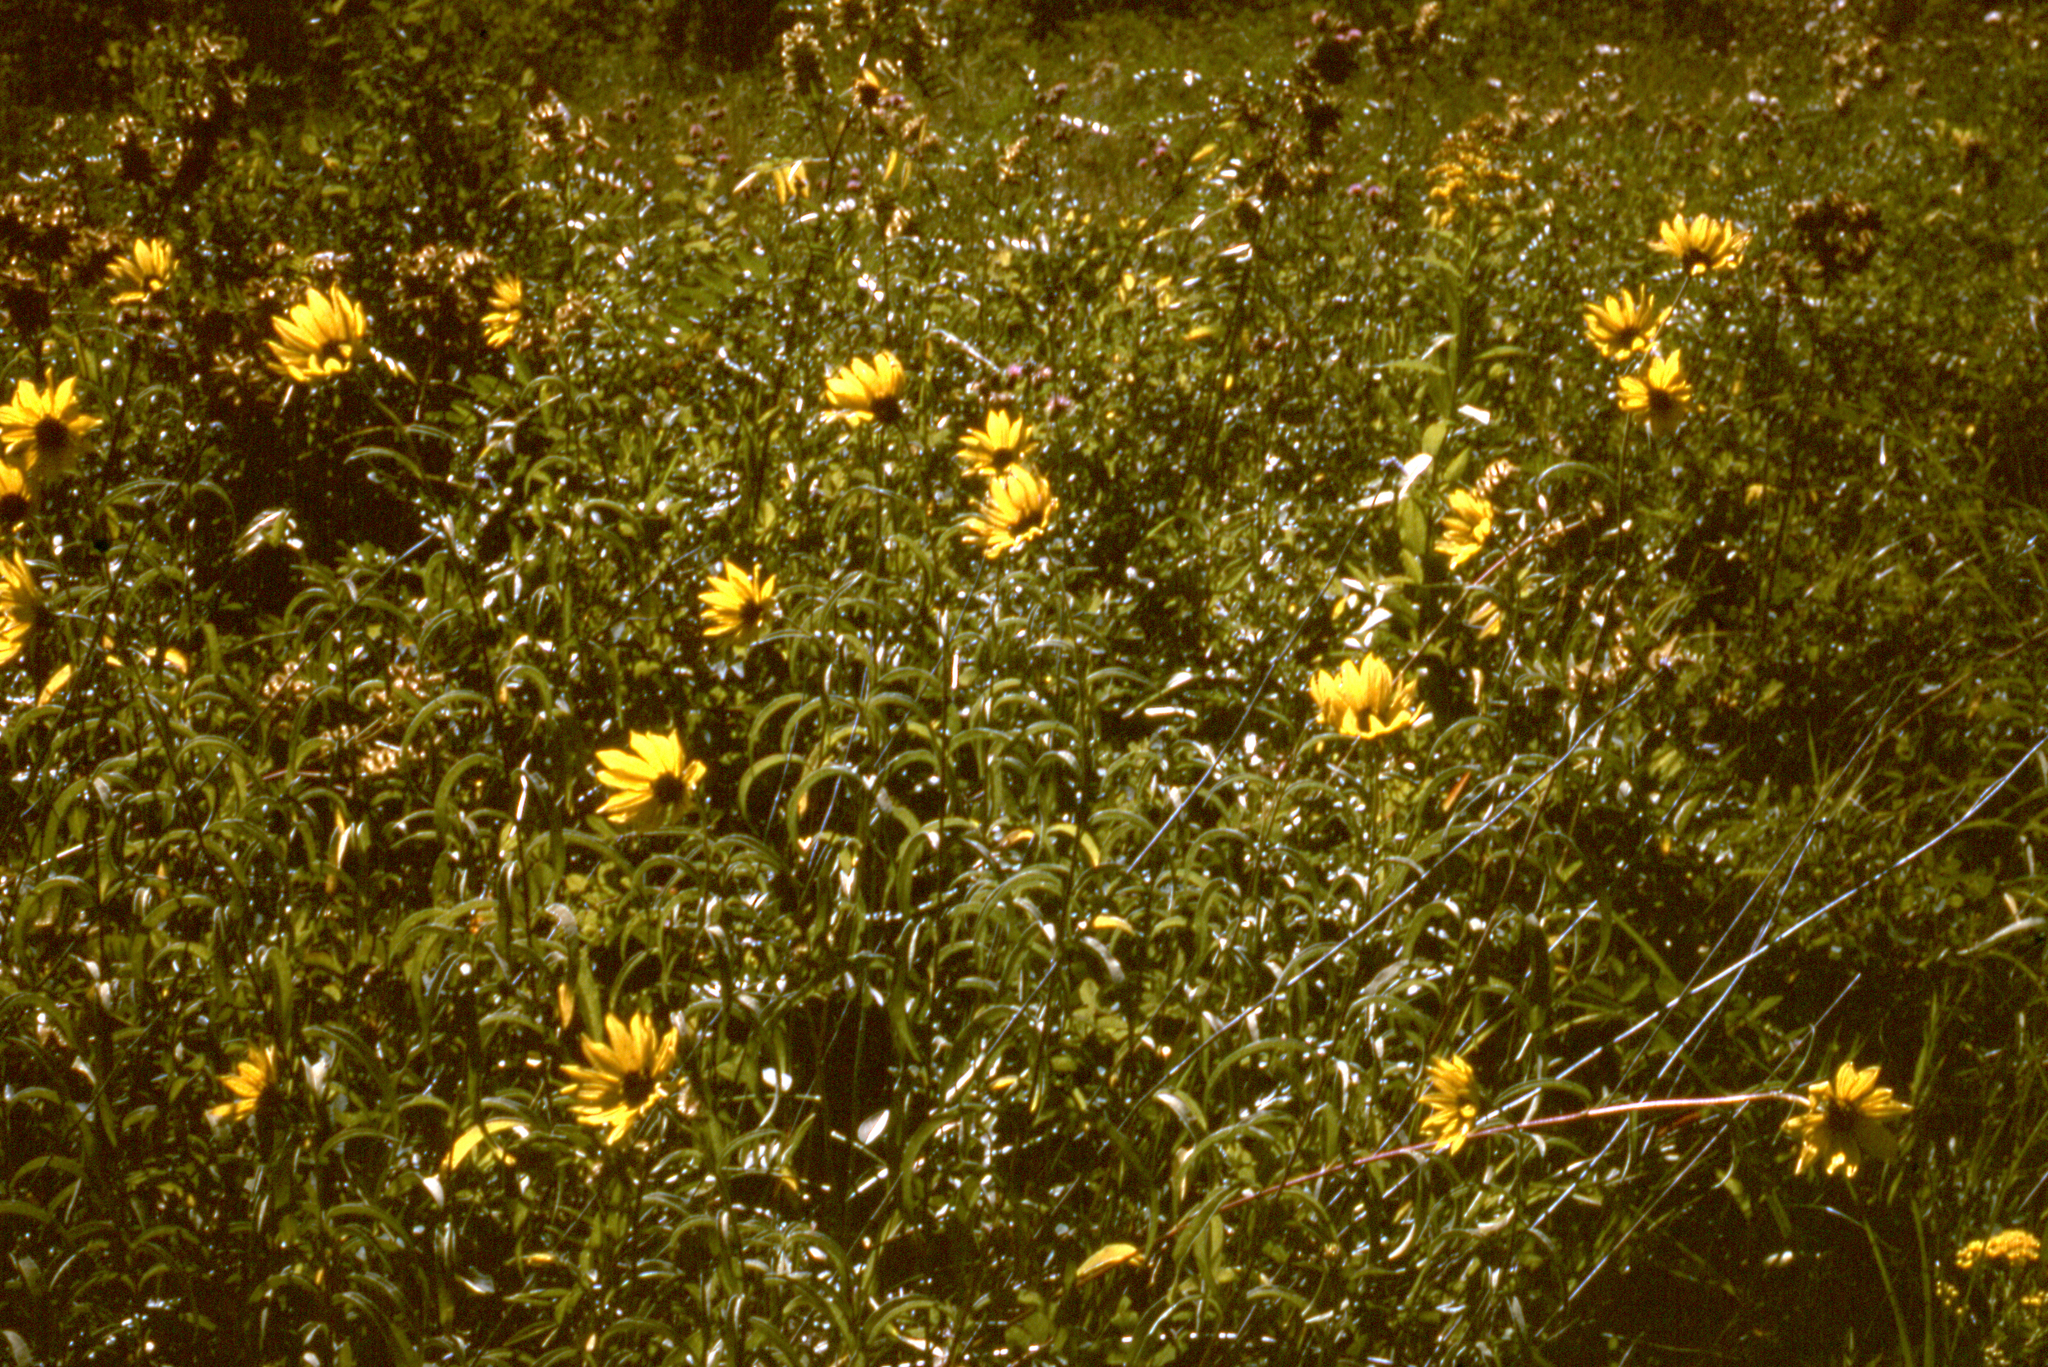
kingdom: Plantae
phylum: Tracheophyta
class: Magnoliopsida
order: Asterales
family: Asteraceae
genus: Helianthus
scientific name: Helianthus maximiliani
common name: Maximilian's sunflower
